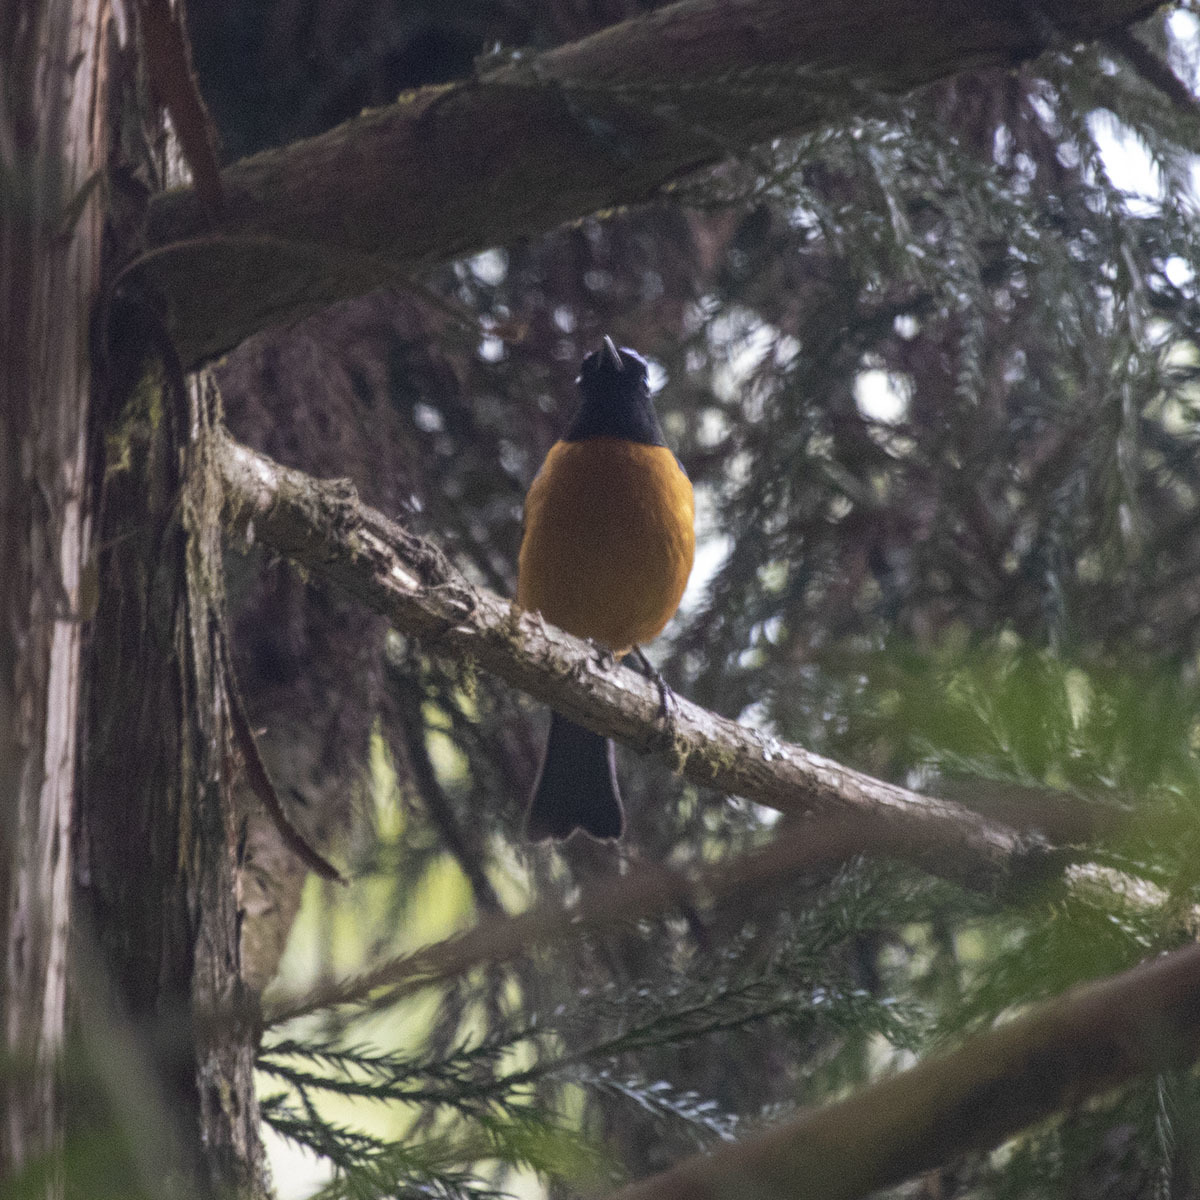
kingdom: Animalia
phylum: Chordata
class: Aves
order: Passeriformes
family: Muscicapidae
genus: Niltava
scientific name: Niltava sundara
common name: Rufous-bellied niltava
